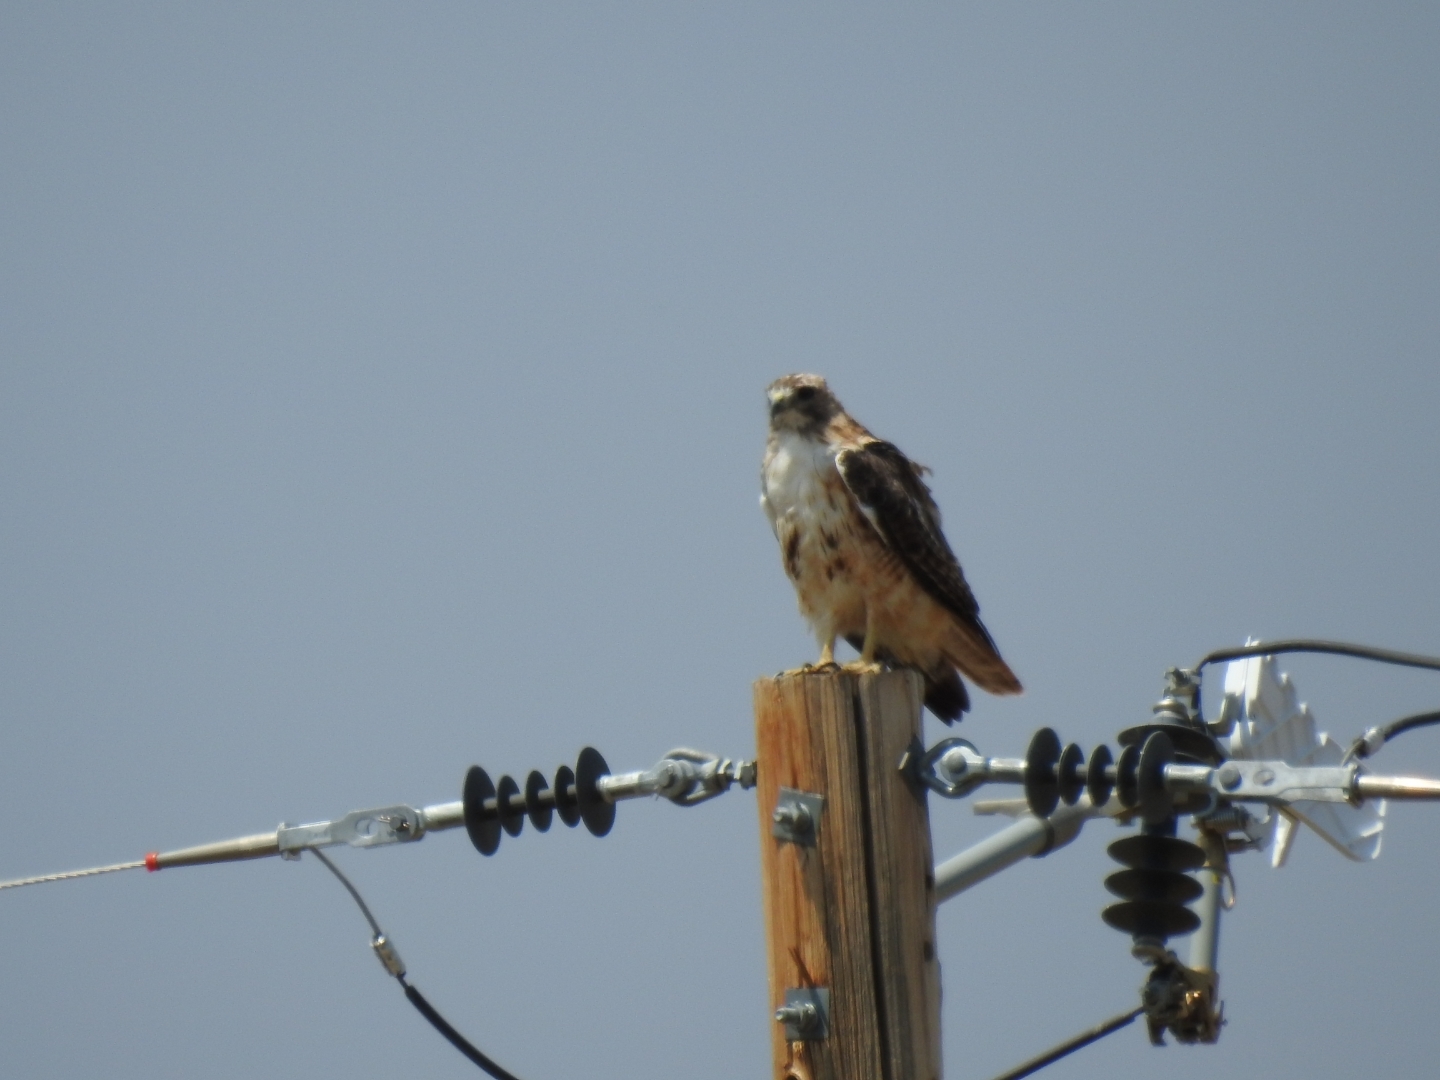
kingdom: Animalia
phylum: Chordata
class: Aves
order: Accipitriformes
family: Accipitridae
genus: Buteo
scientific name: Buteo jamaicensis
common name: Red-tailed hawk
